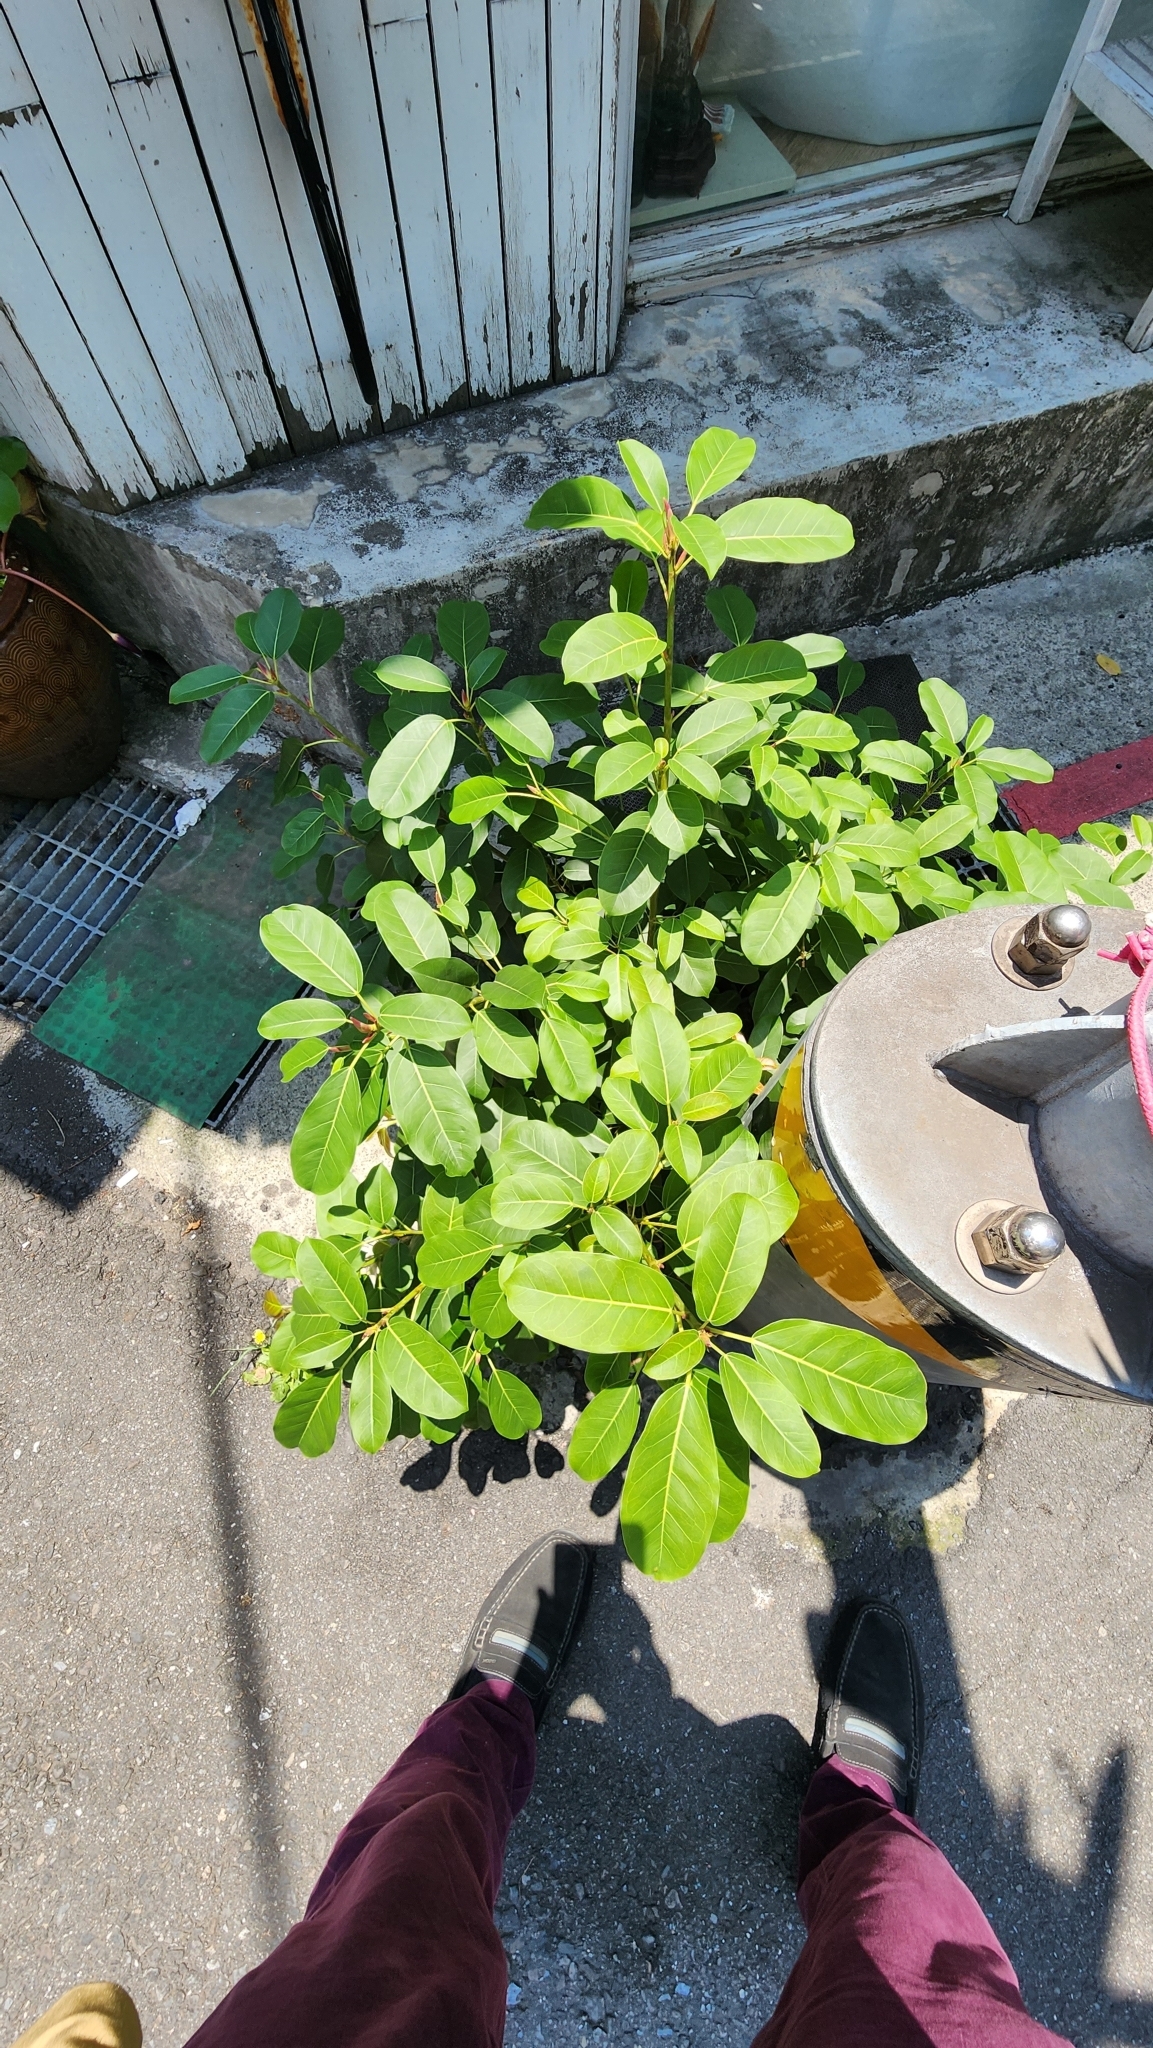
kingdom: Plantae
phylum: Tracheophyta
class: Magnoliopsida
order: Rosales
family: Moraceae
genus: Ficus
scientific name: Ficus subpisocarpa
